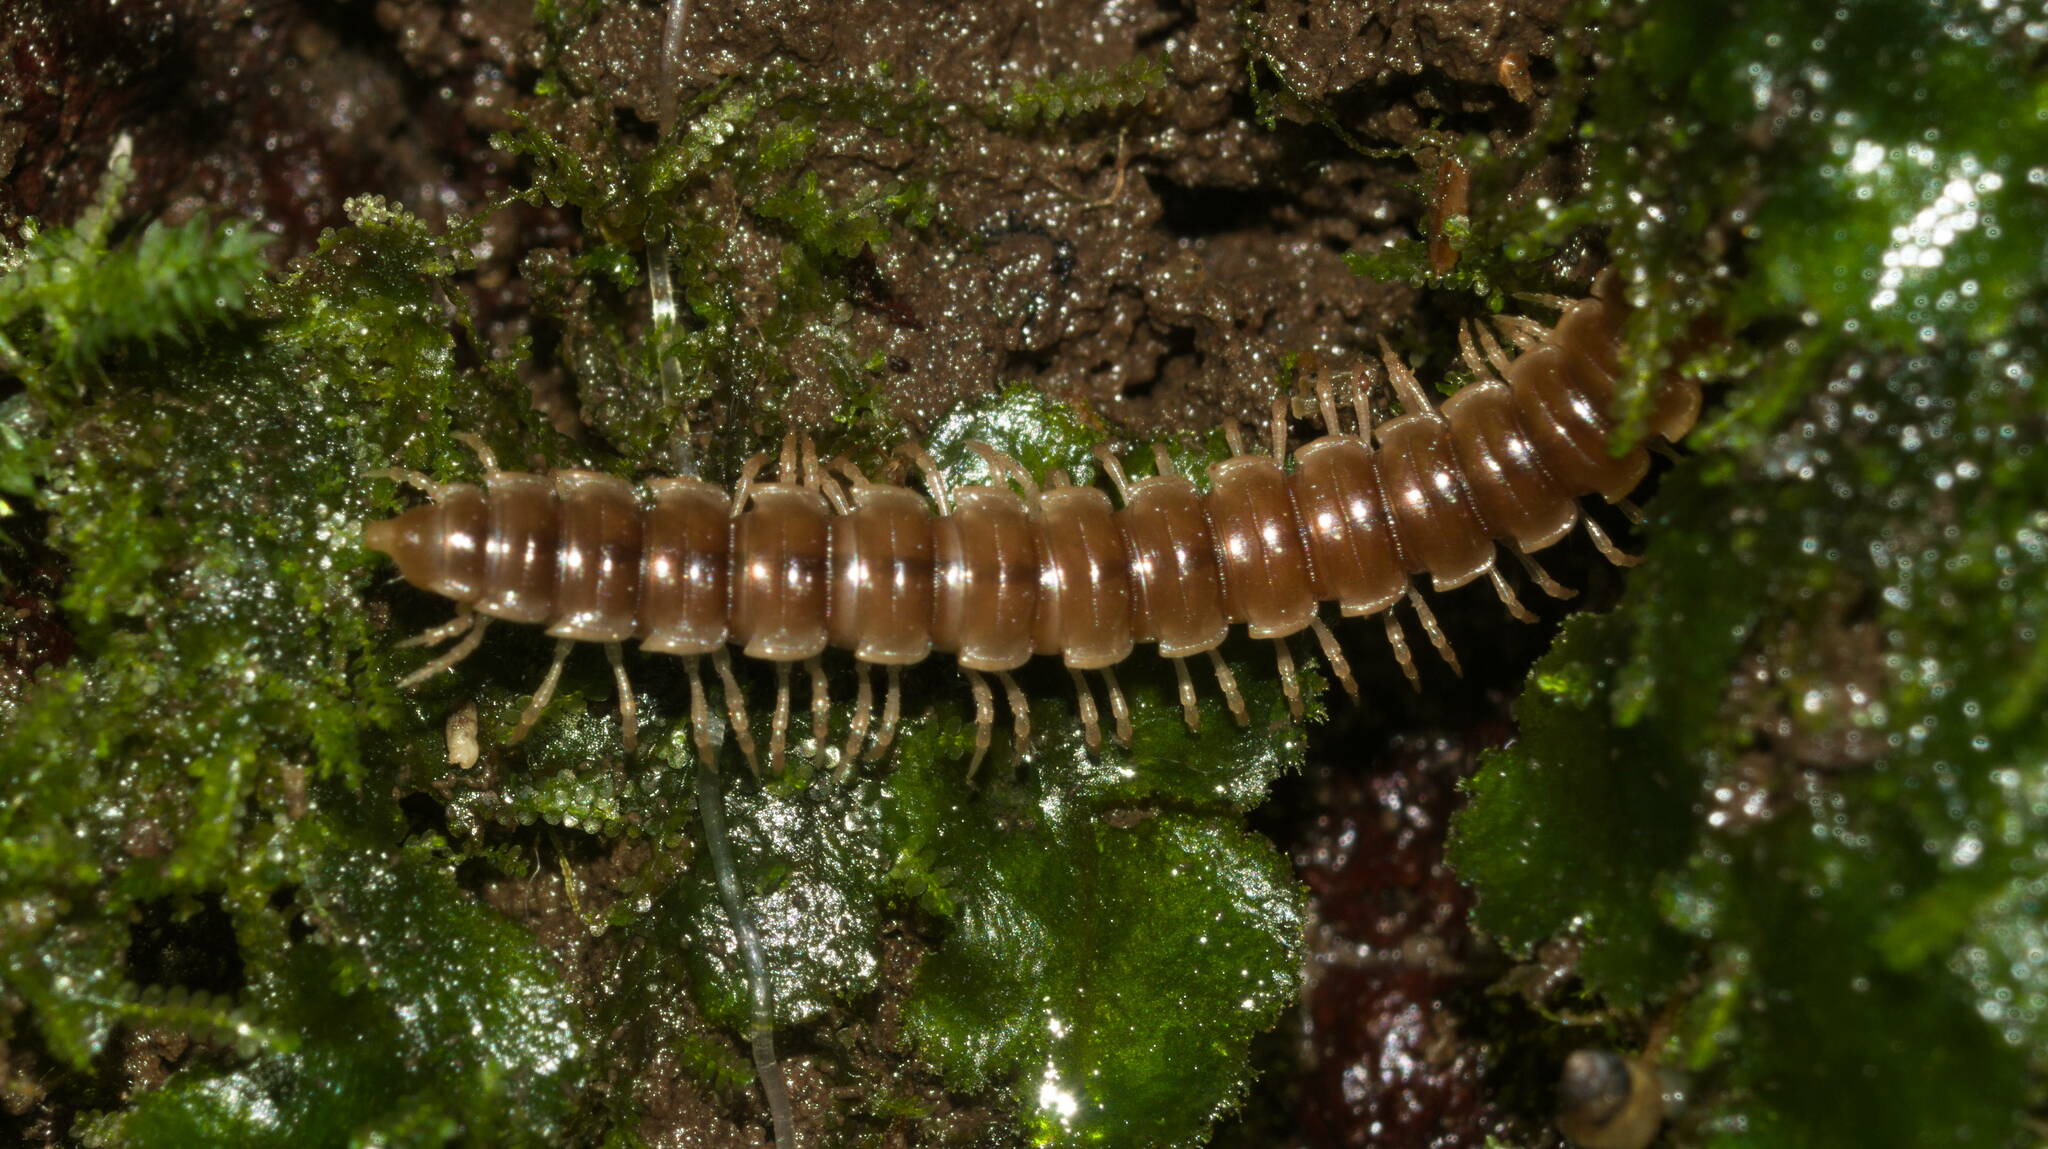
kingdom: Animalia
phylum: Arthropoda
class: Diplopoda
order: Polydesmida
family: Paradoxosomatidae
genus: Oxidus
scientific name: Oxidus gracilis
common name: Greenhouse millipede
